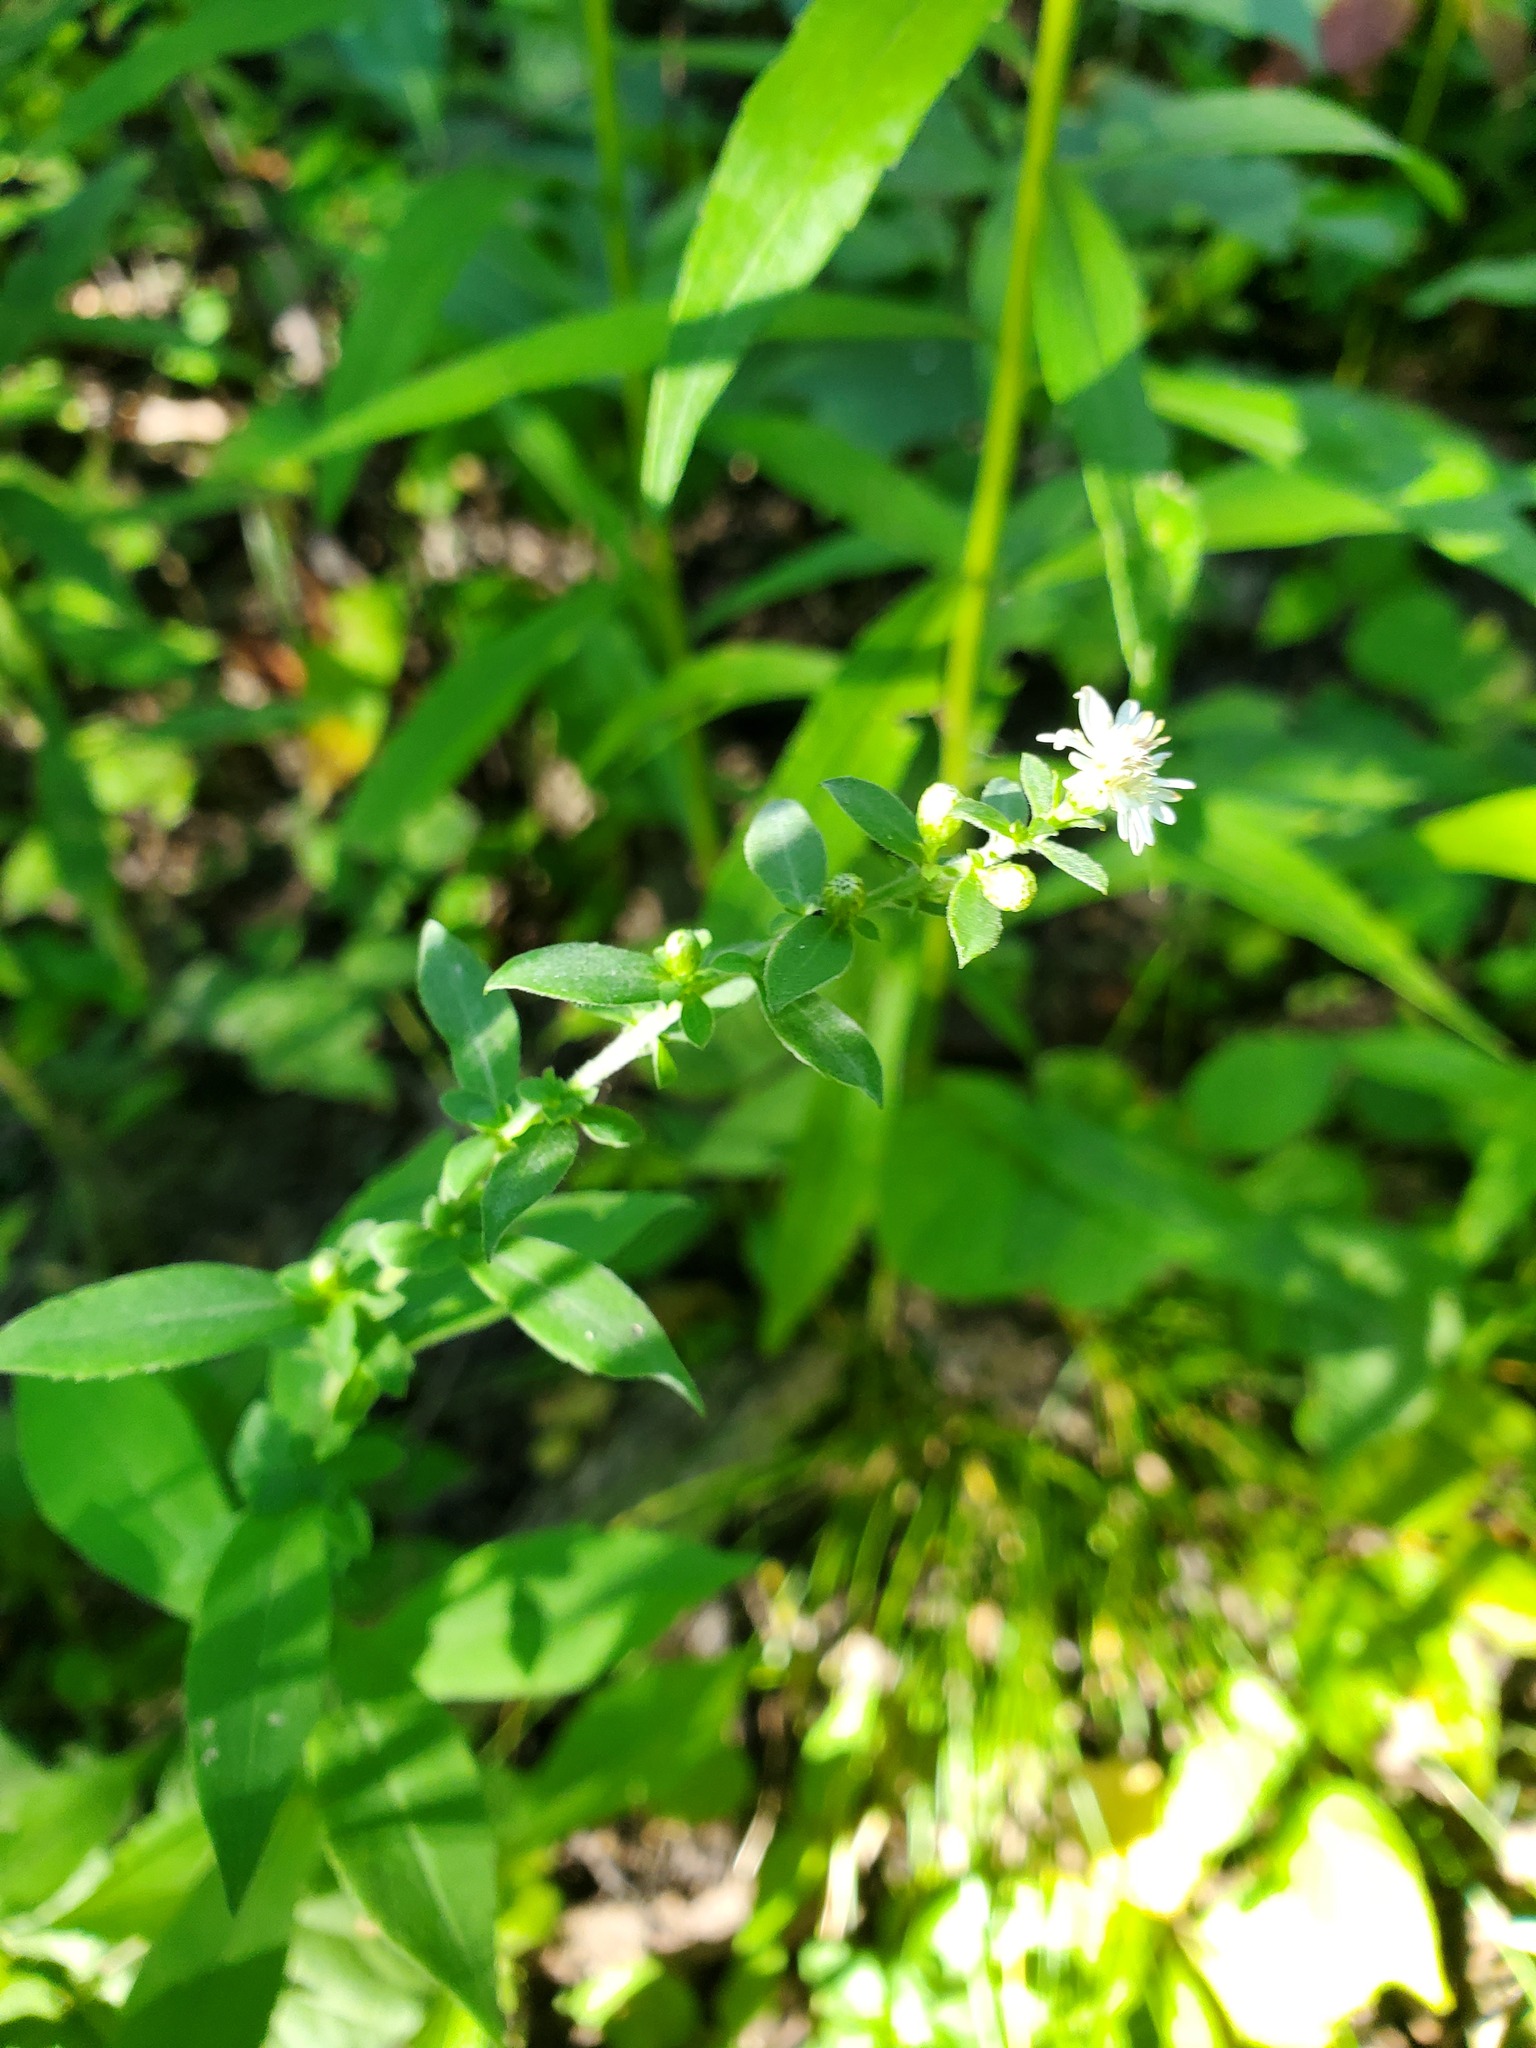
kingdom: Plantae
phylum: Tracheophyta
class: Magnoliopsida
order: Asterales
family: Asteraceae
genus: Symphyotrichum
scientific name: Symphyotrichum ontarionis
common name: Bottomland aster
